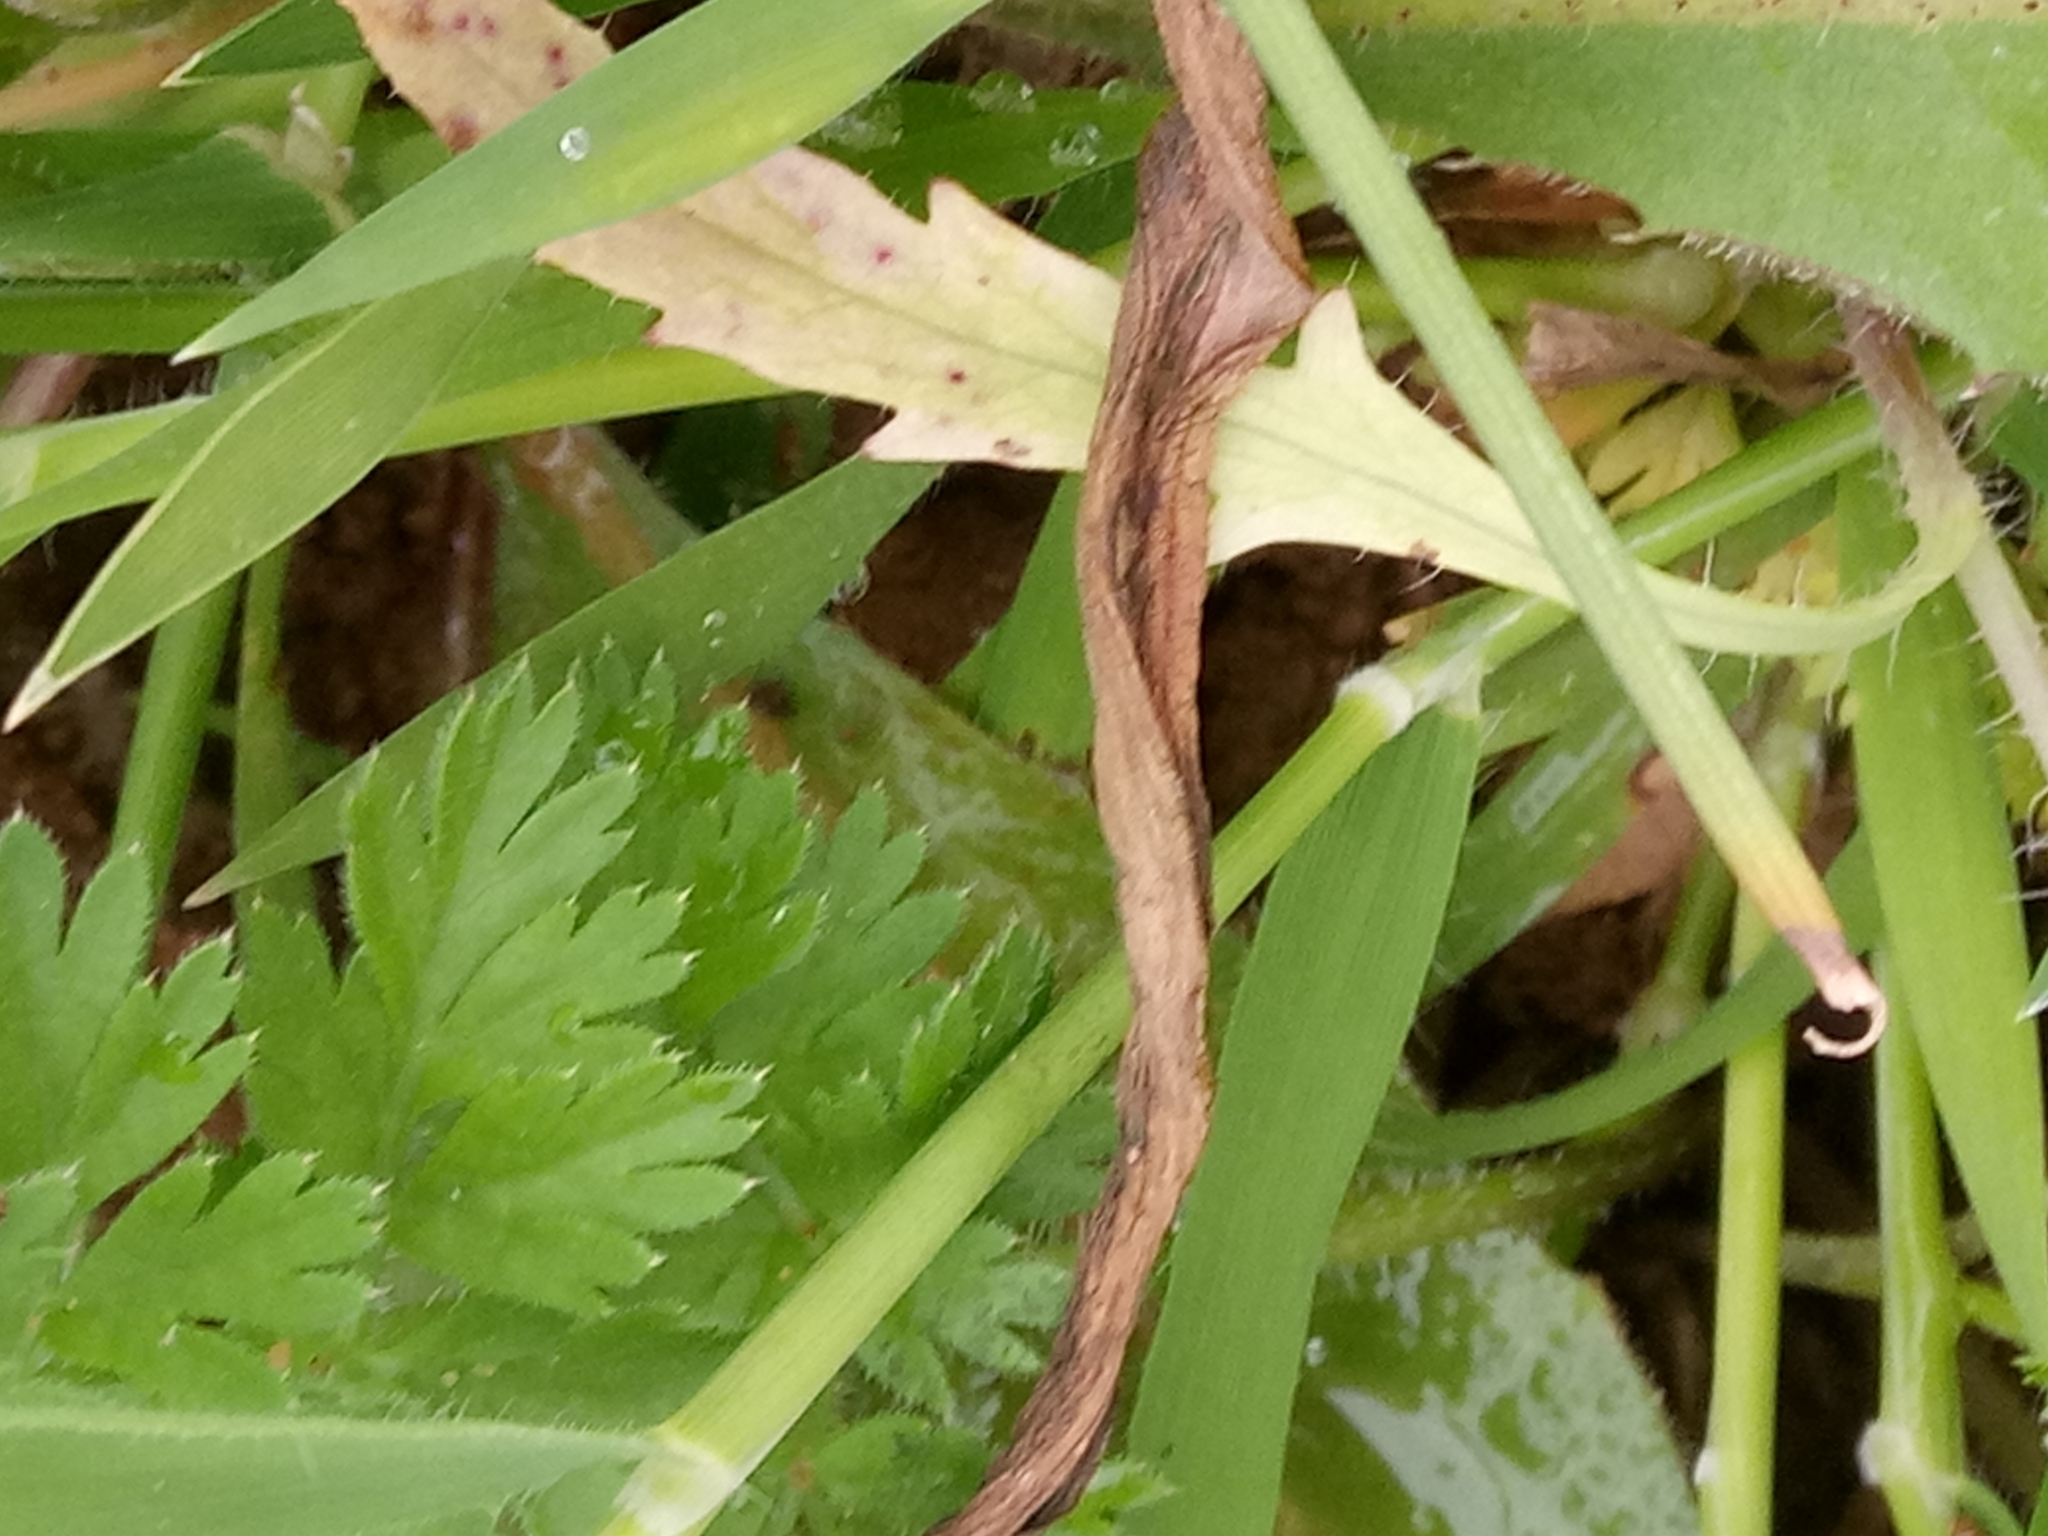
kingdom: Plantae
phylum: Tracheophyta
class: Magnoliopsida
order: Ranunculales
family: Papaveraceae
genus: Papaver
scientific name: Papaver dubium
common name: Long-headed poppy
